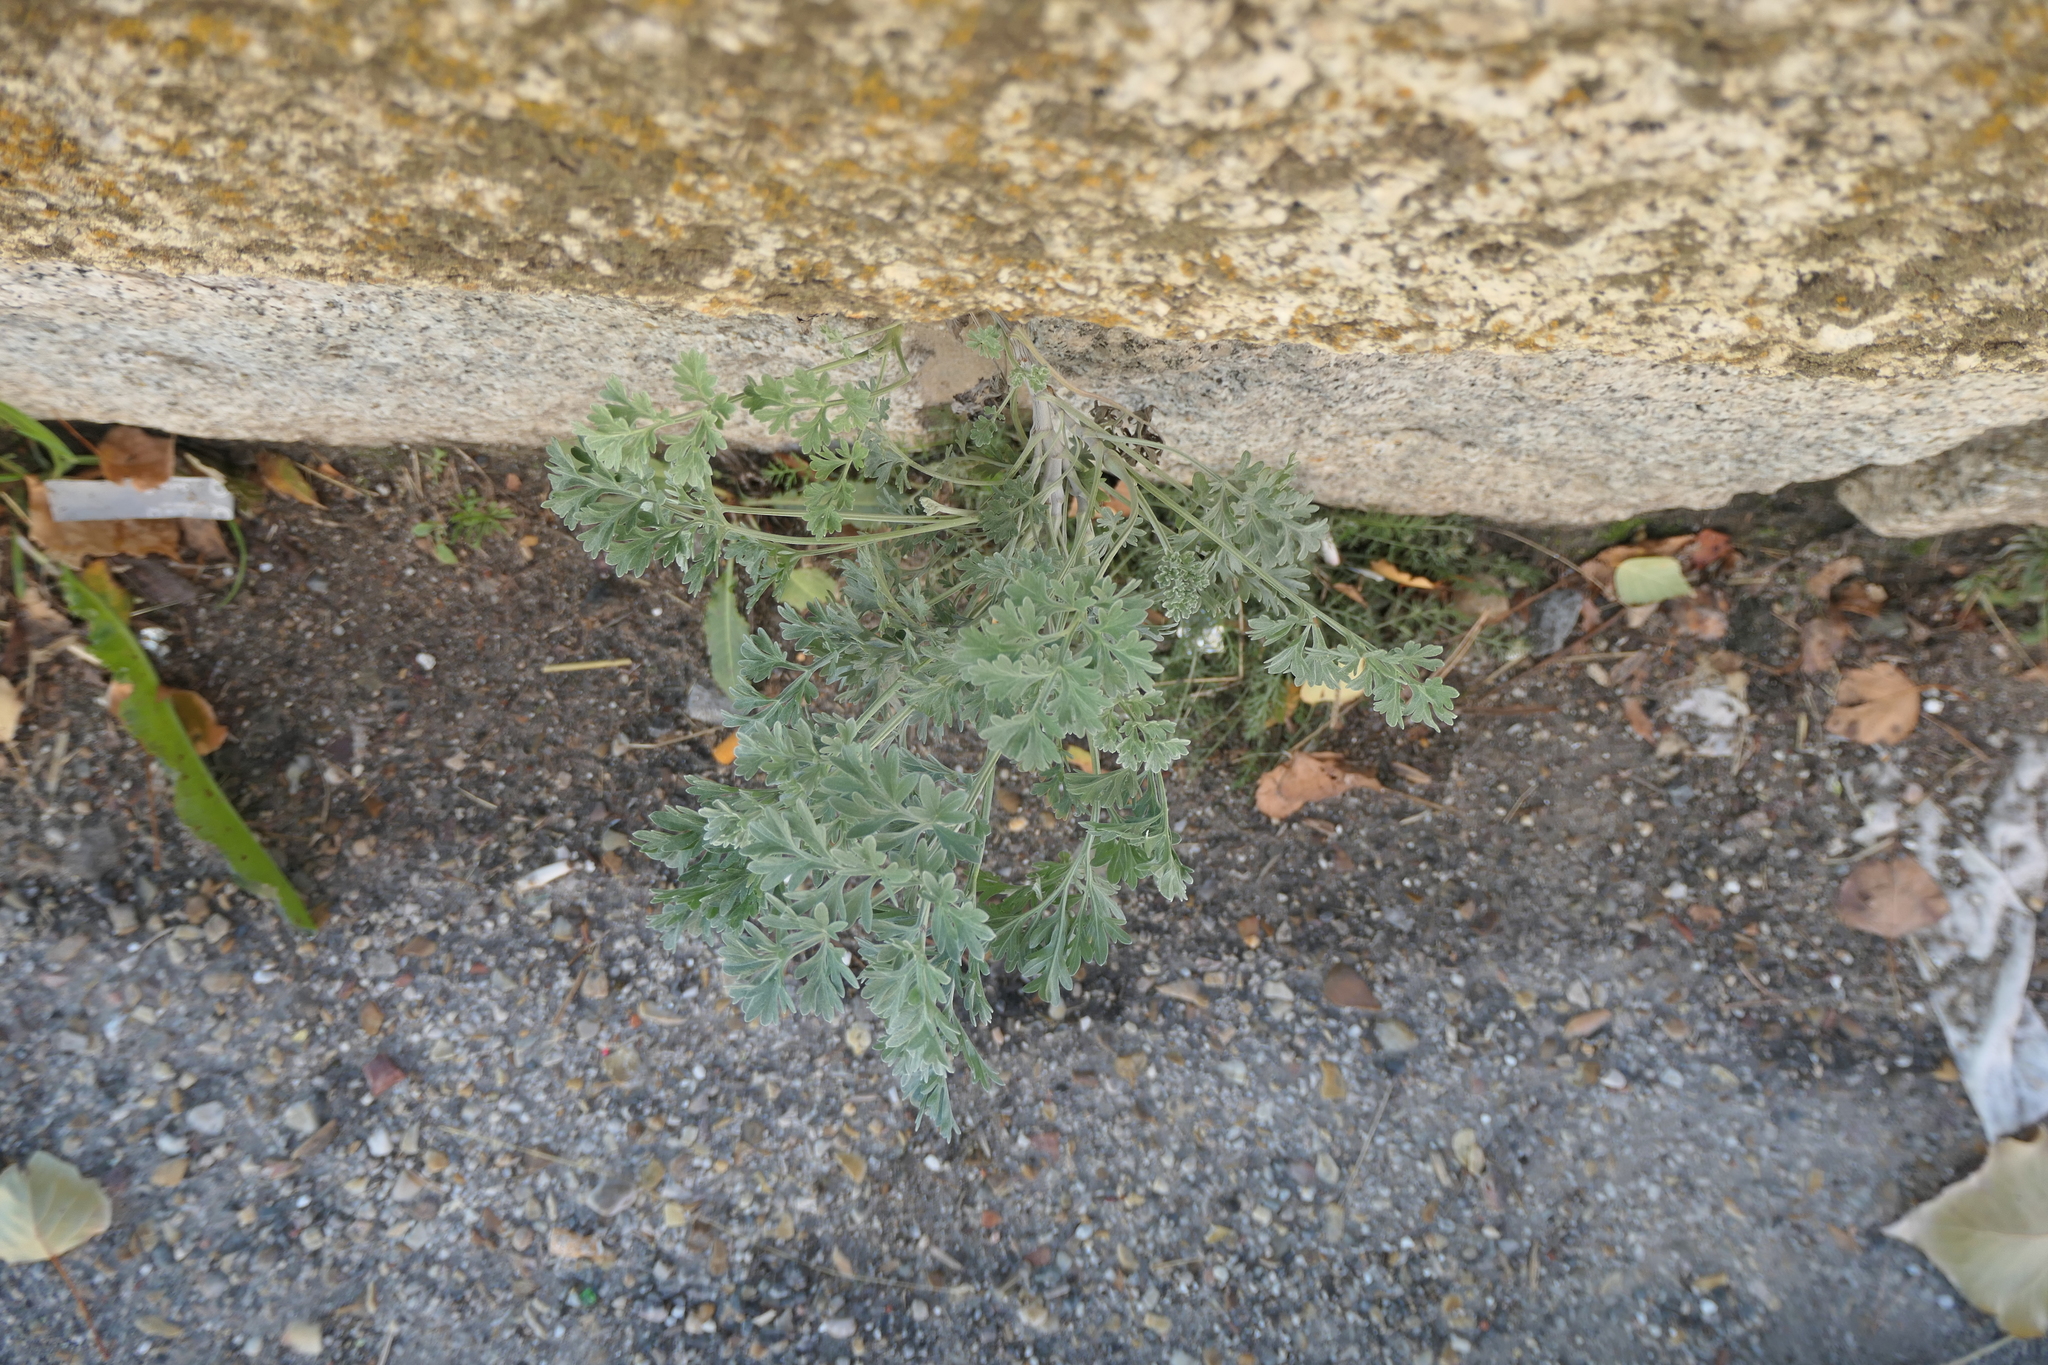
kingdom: Plantae
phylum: Tracheophyta
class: Magnoliopsida
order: Asterales
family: Asteraceae
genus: Artemisia
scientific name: Artemisia absinthium
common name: Wormwood
